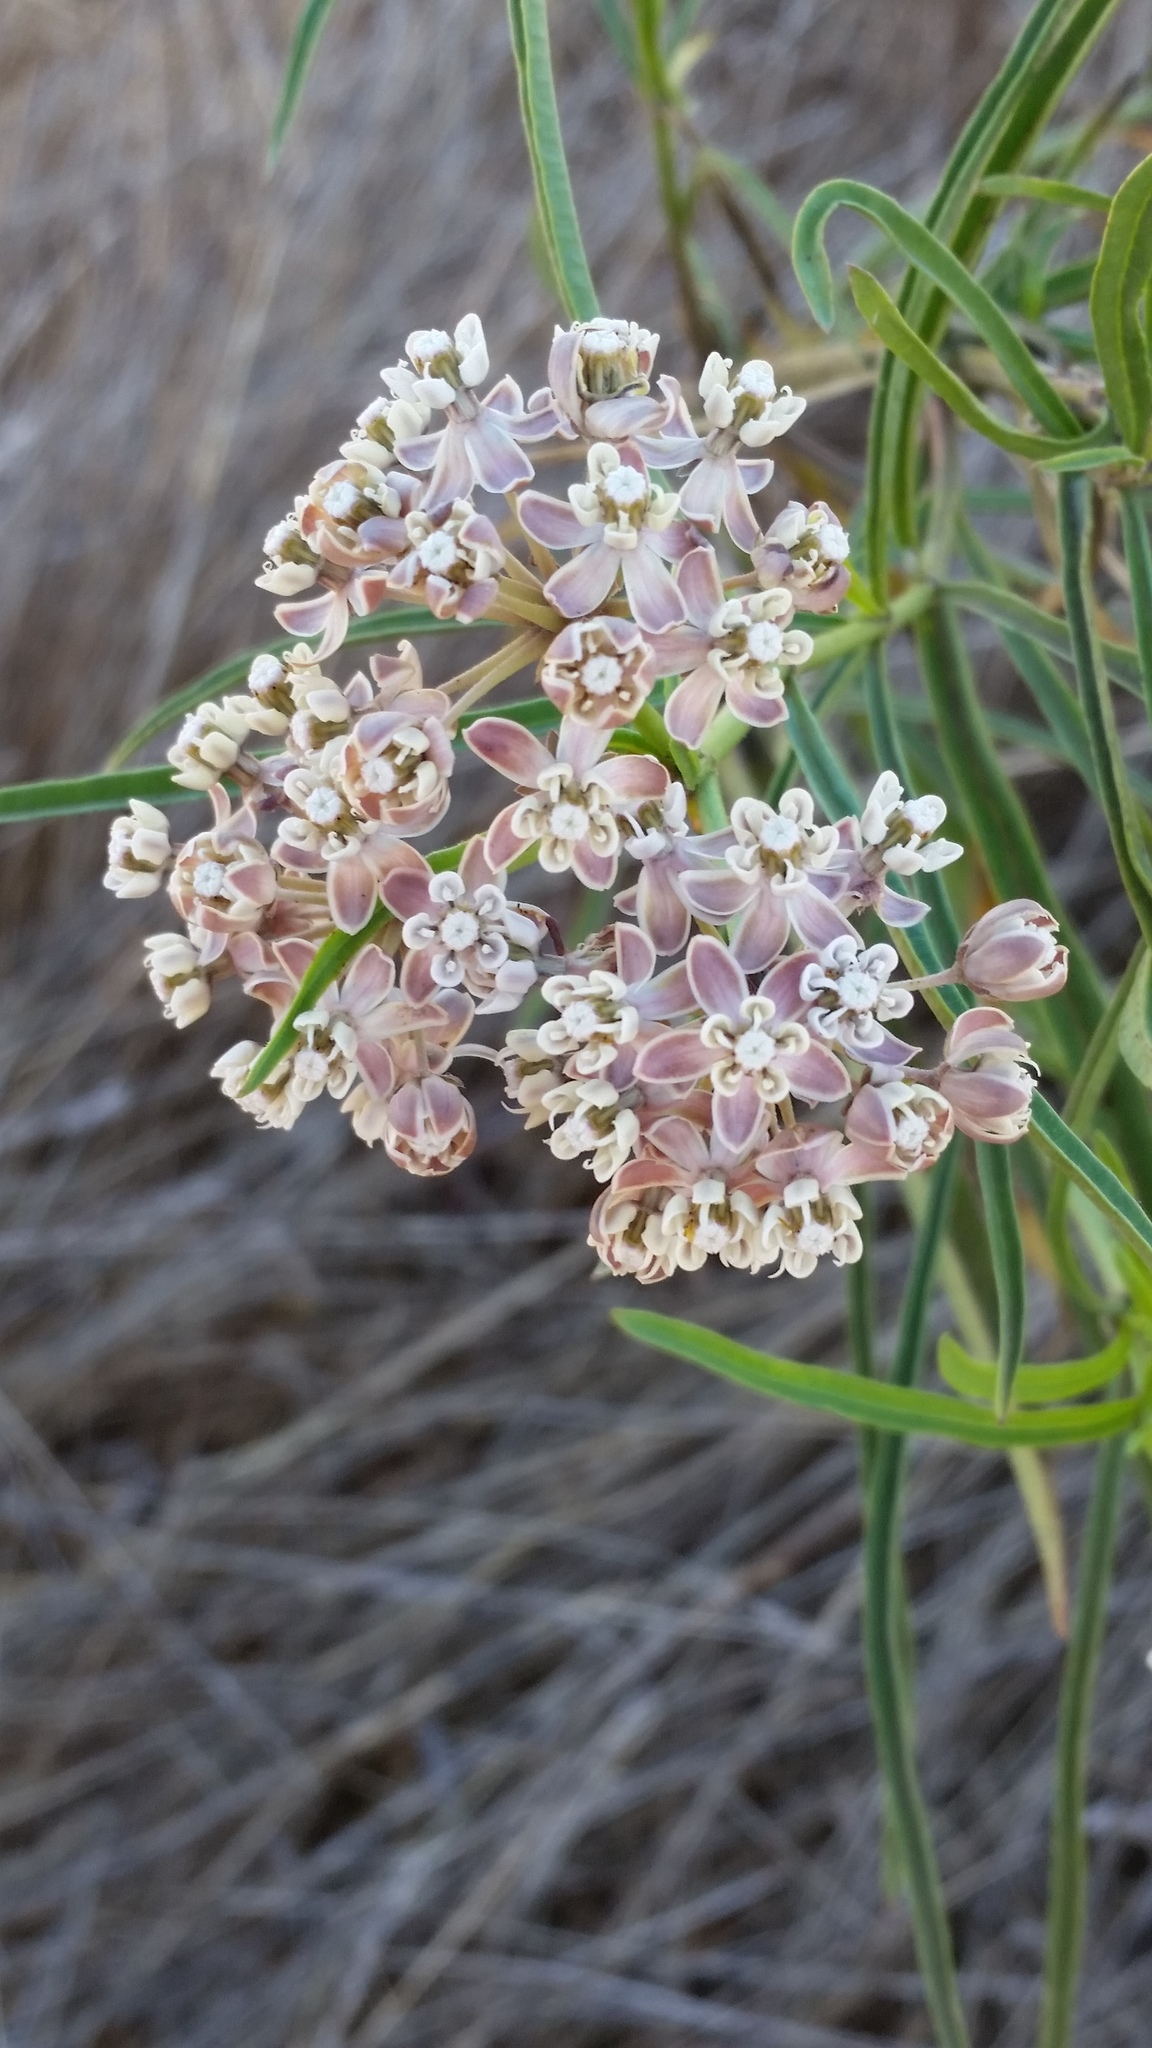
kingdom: Plantae
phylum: Tracheophyta
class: Magnoliopsida
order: Gentianales
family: Apocynaceae
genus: Asclepias
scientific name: Asclepias fascicularis
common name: Mexican milkweed
